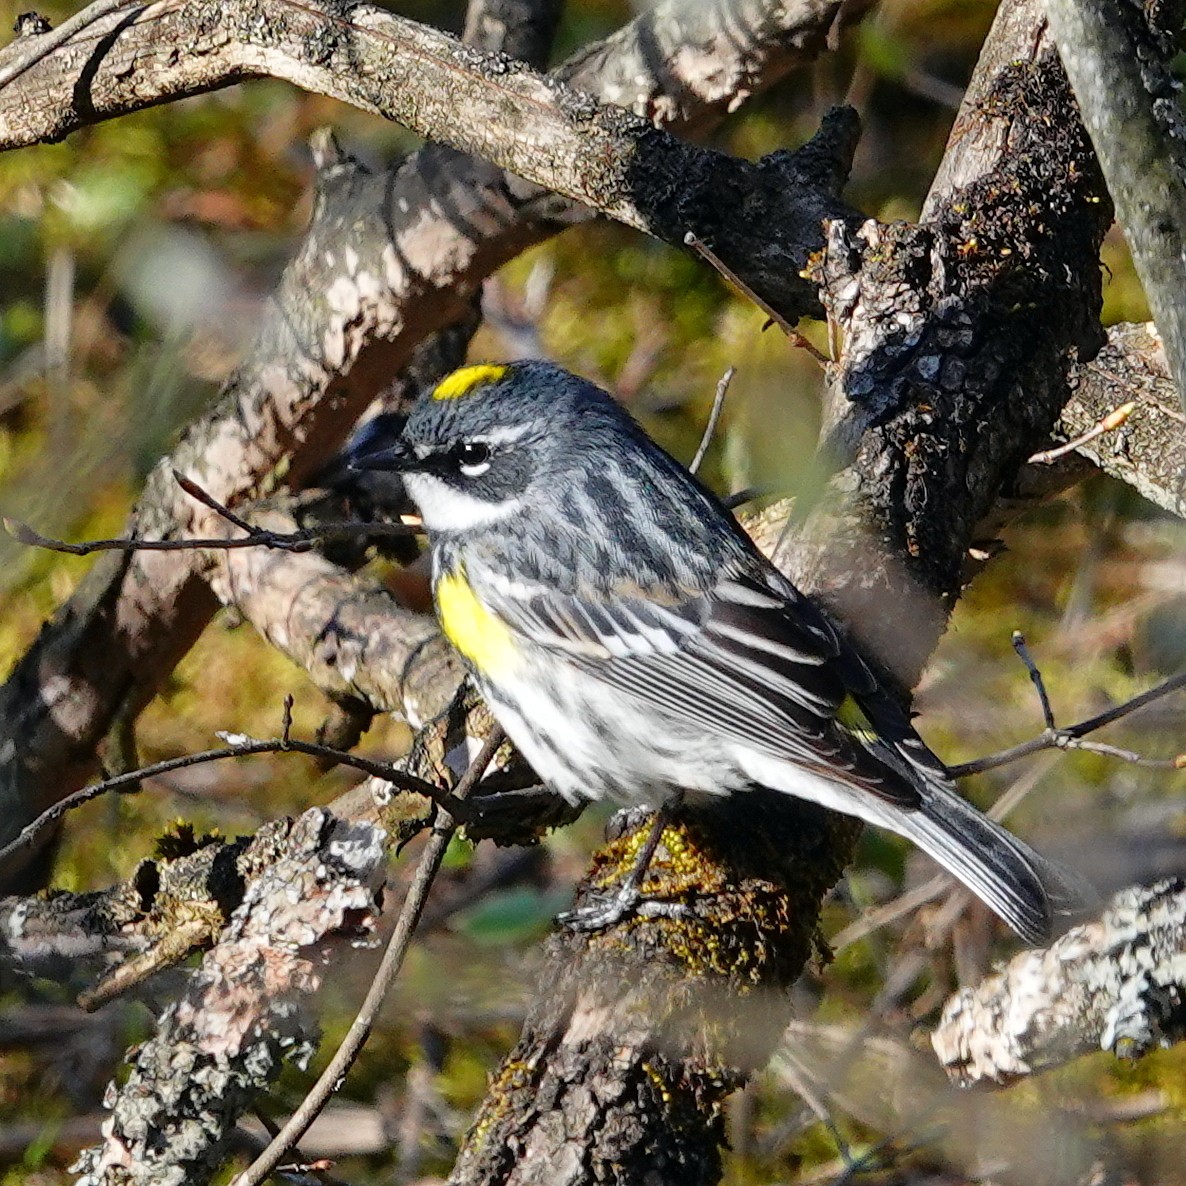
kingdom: Animalia
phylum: Chordata
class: Aves
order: Passeriformes
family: Parulidae
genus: Setophaga
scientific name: Setophaga coronata
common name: Myrtle warbler
